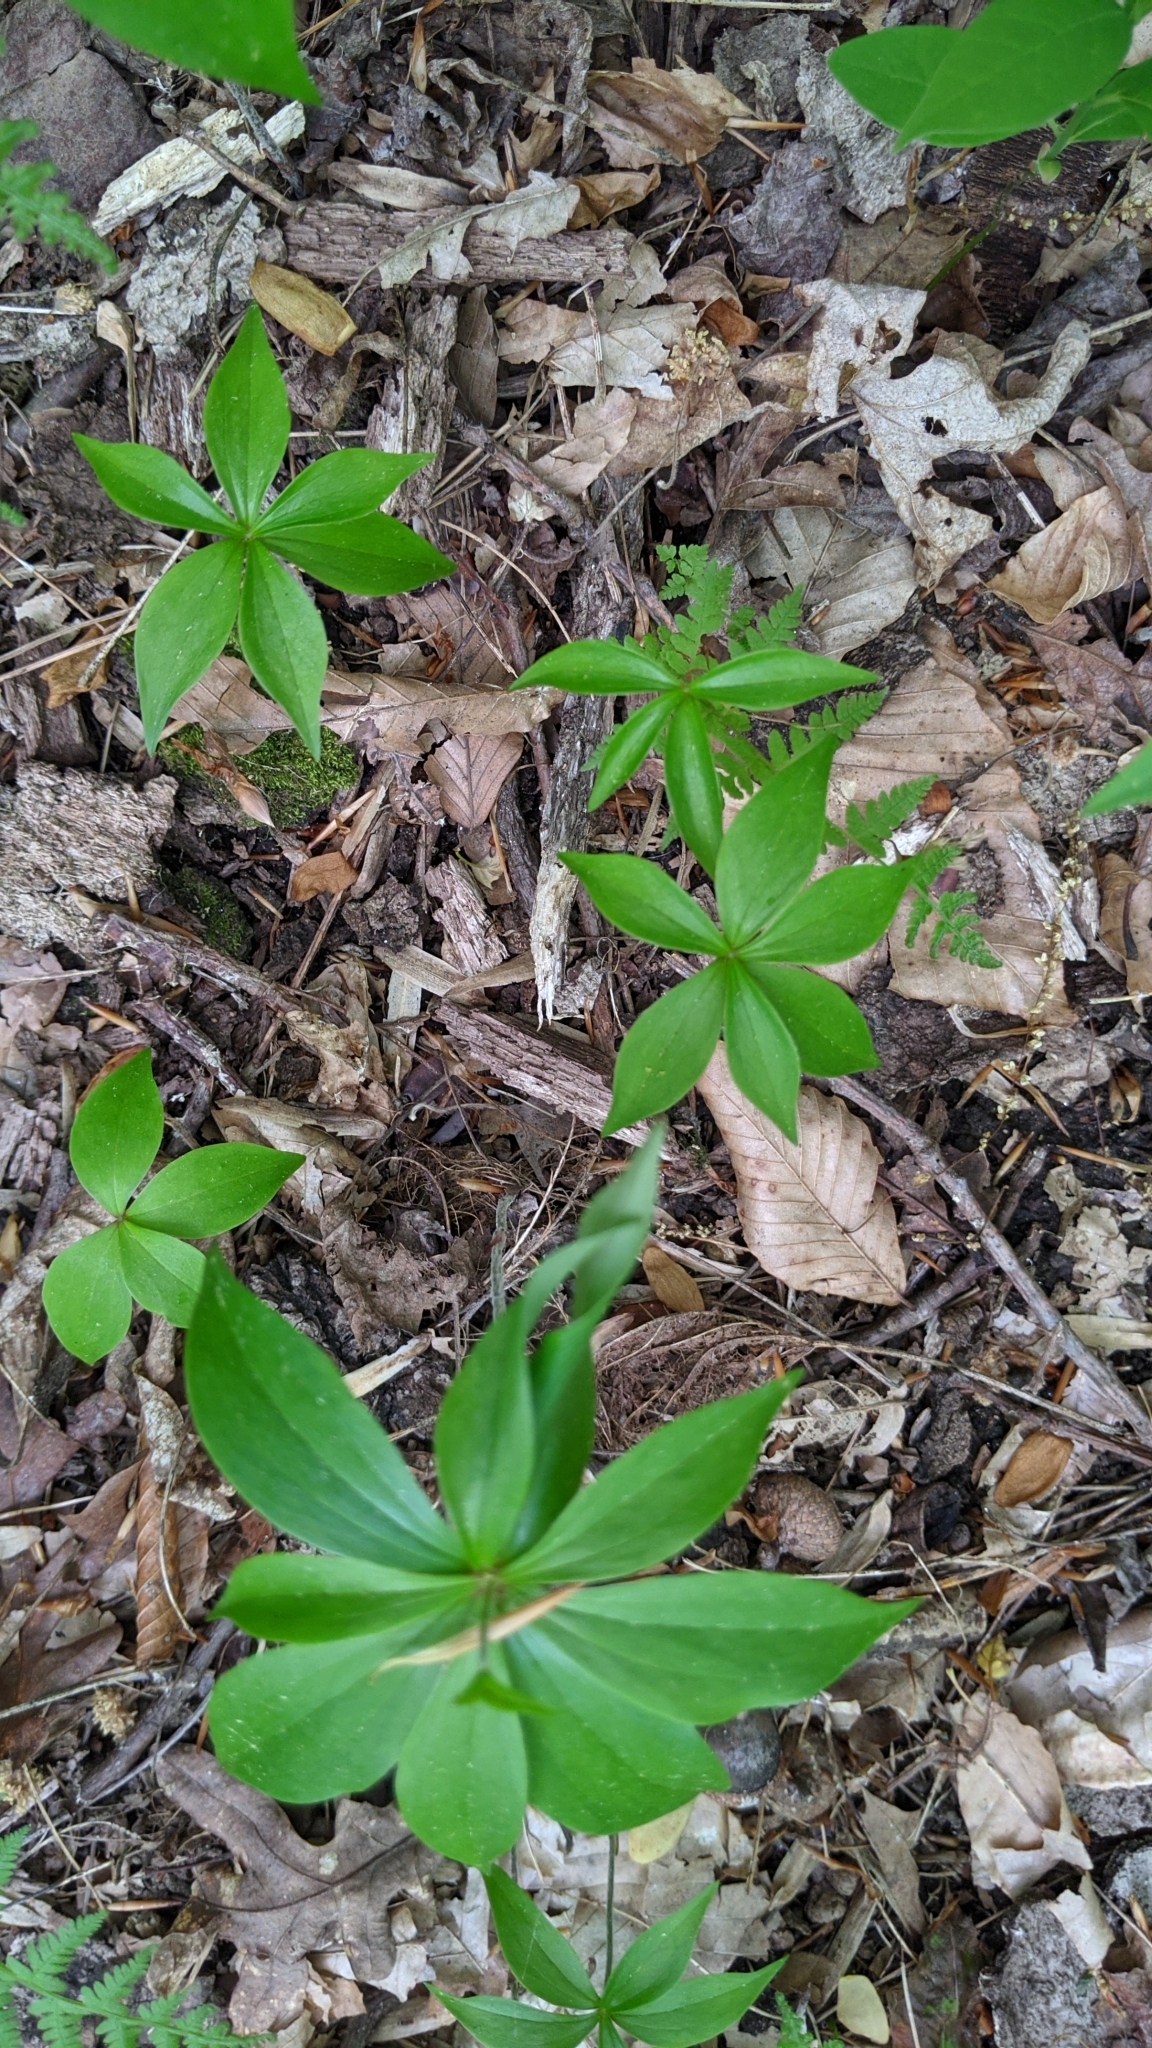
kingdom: Plantae
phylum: Tracheophyta
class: Liliopsida
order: Liliales
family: Liliaceae
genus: Medeola
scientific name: Medeola virginiana
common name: Indian cucumber-root
